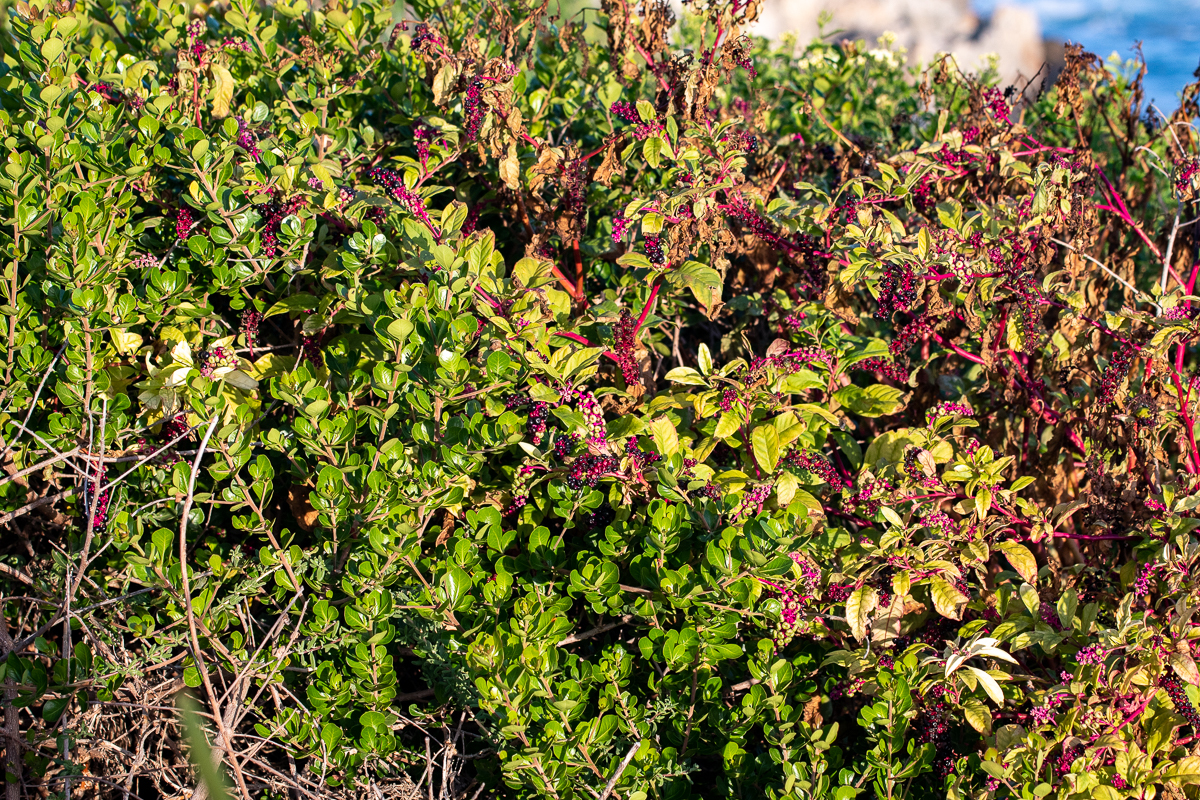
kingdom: Plantae
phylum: Tracheophyta
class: Magnoliopsida
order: Caryophyllales
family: Phytolaccaceae
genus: Phytolacca
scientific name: Phytolacca americana
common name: American pokeweed
